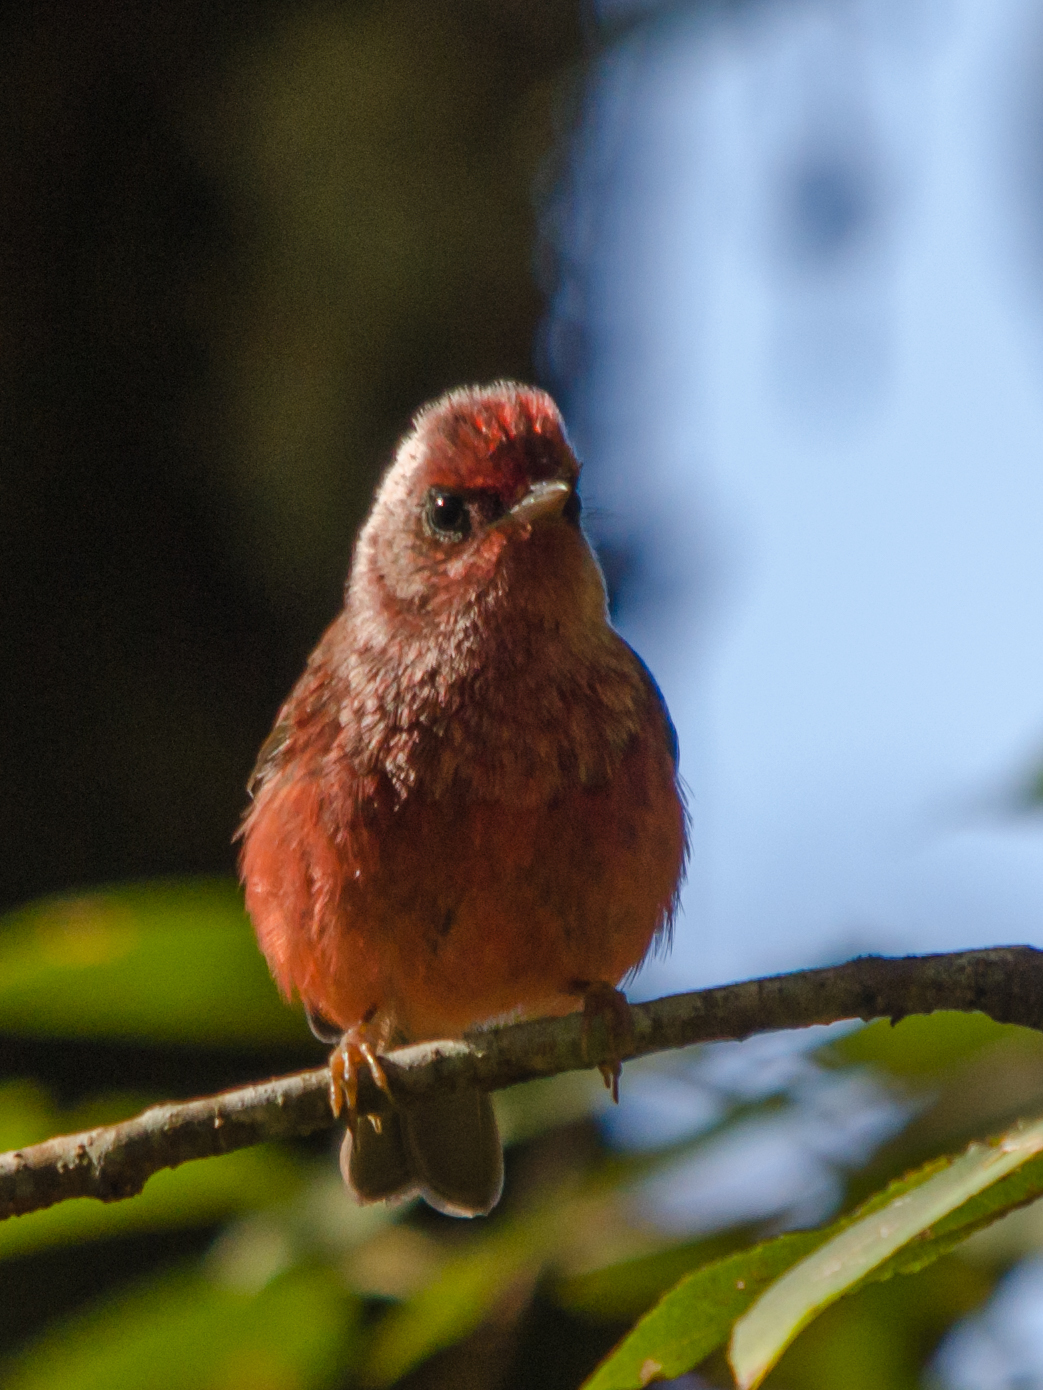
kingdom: Animalia
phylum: Chordata
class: Aves
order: Passeriformes
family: Parulidae
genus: Cardellina
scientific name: Cardellina versicolor
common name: Pink-headed warbler
